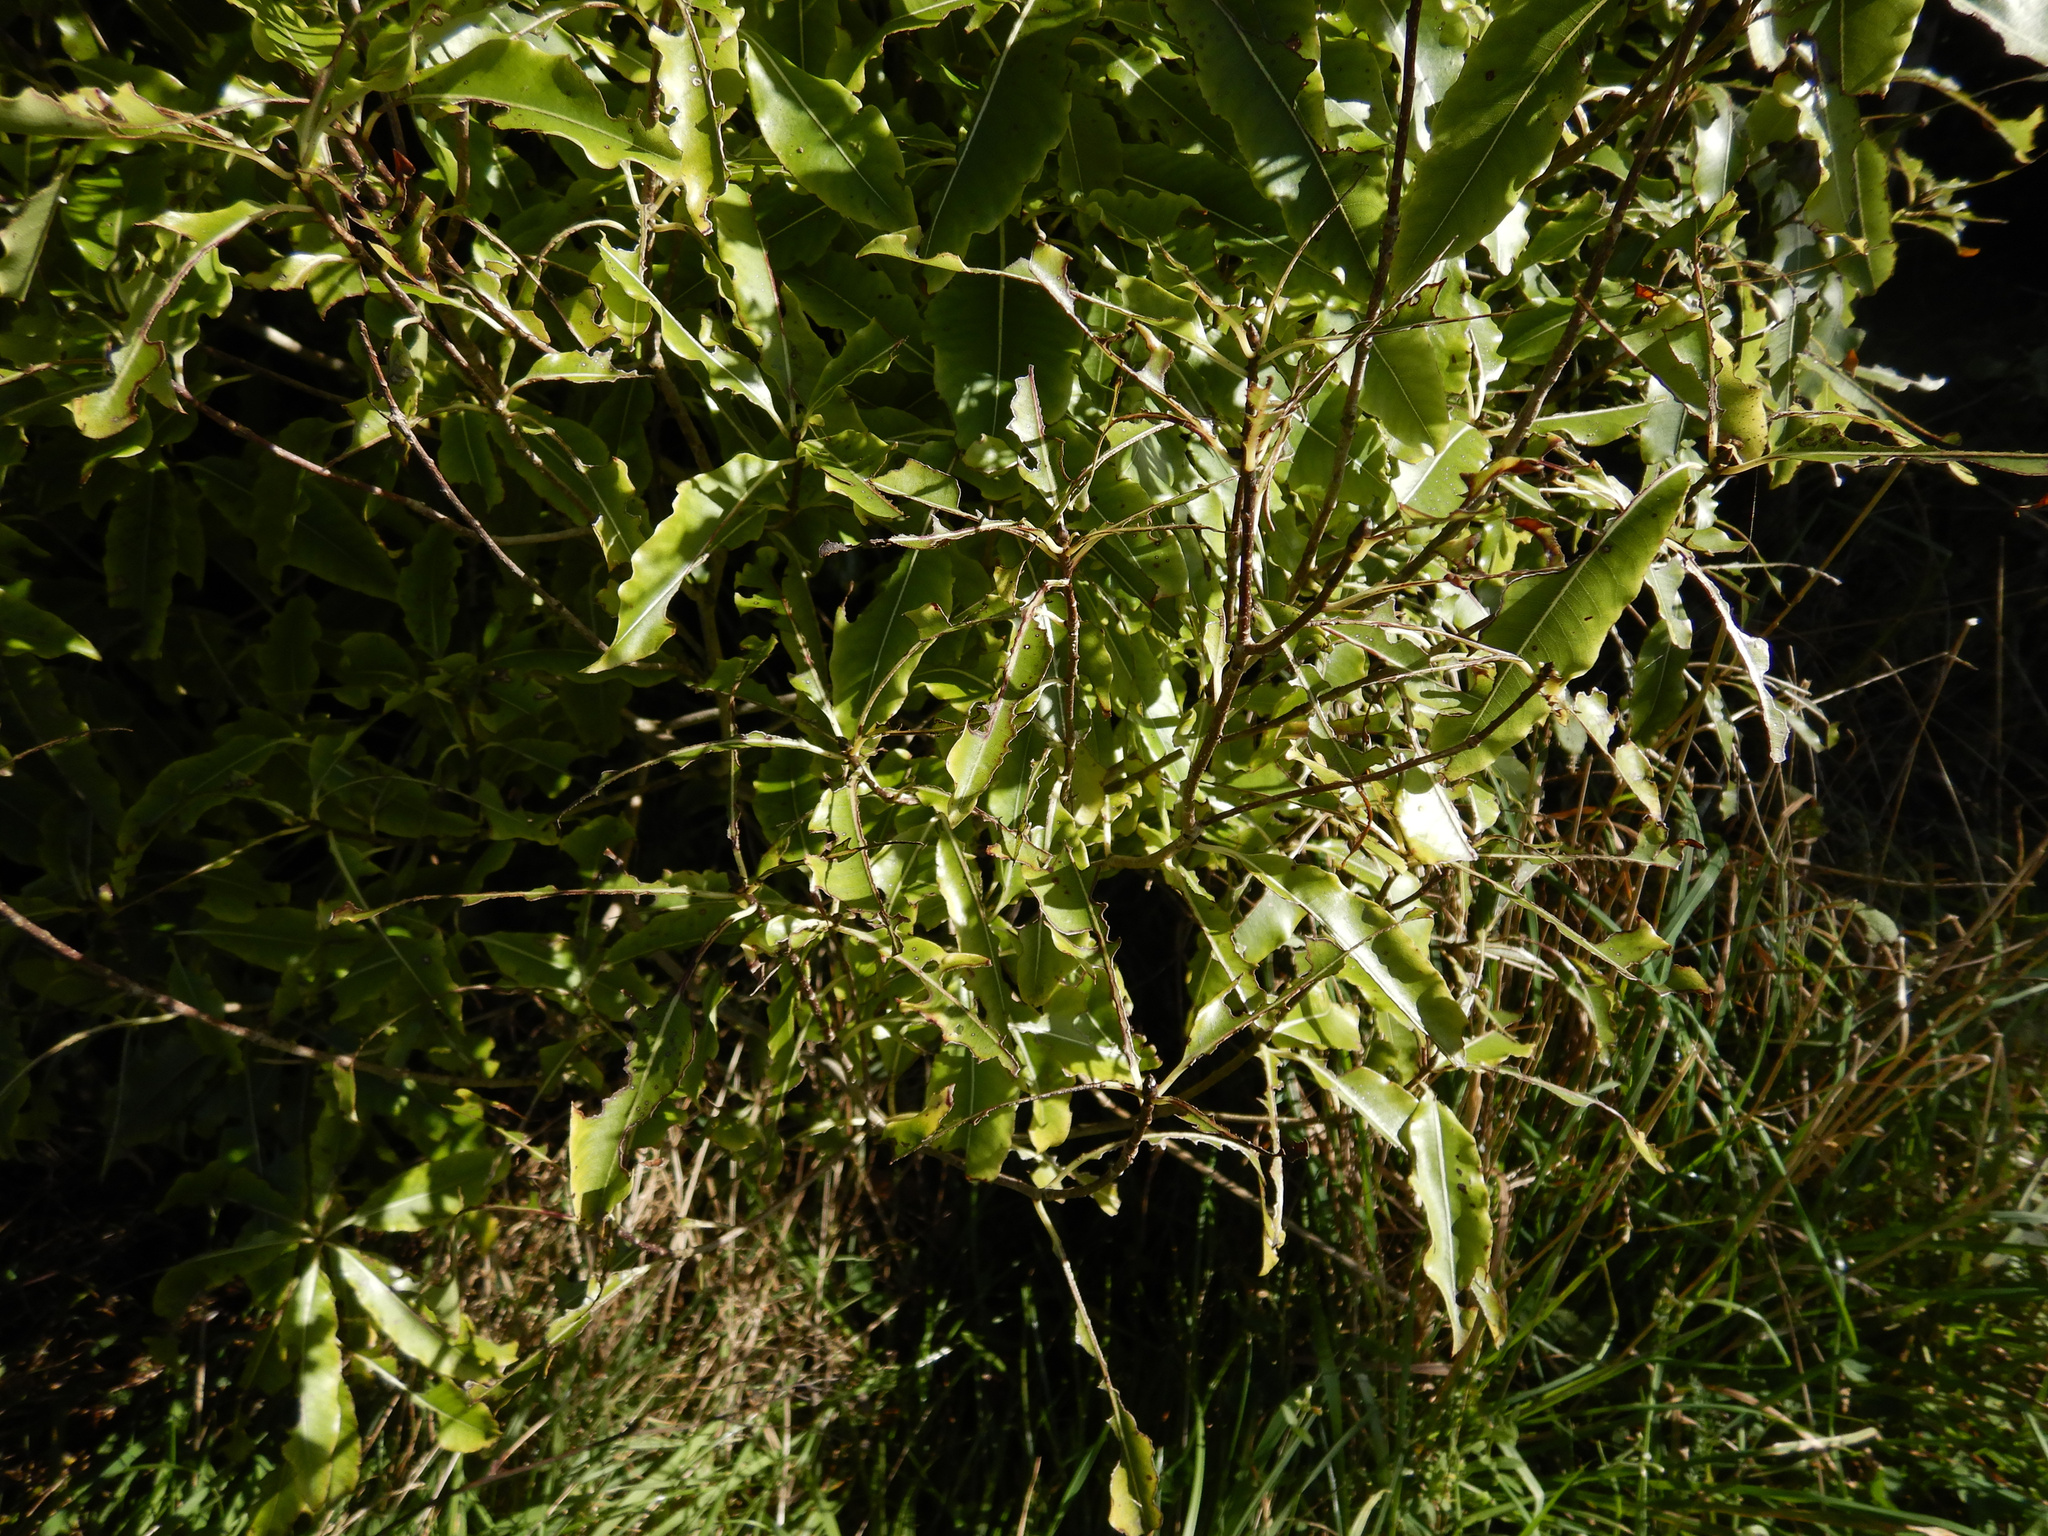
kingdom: Plantae
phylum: Tracheophyta
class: Magnoliopsida
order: Apiales
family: Pittosporaceae
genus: Pittosporum
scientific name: Pittosporum eugenioides
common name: Lemonwood
